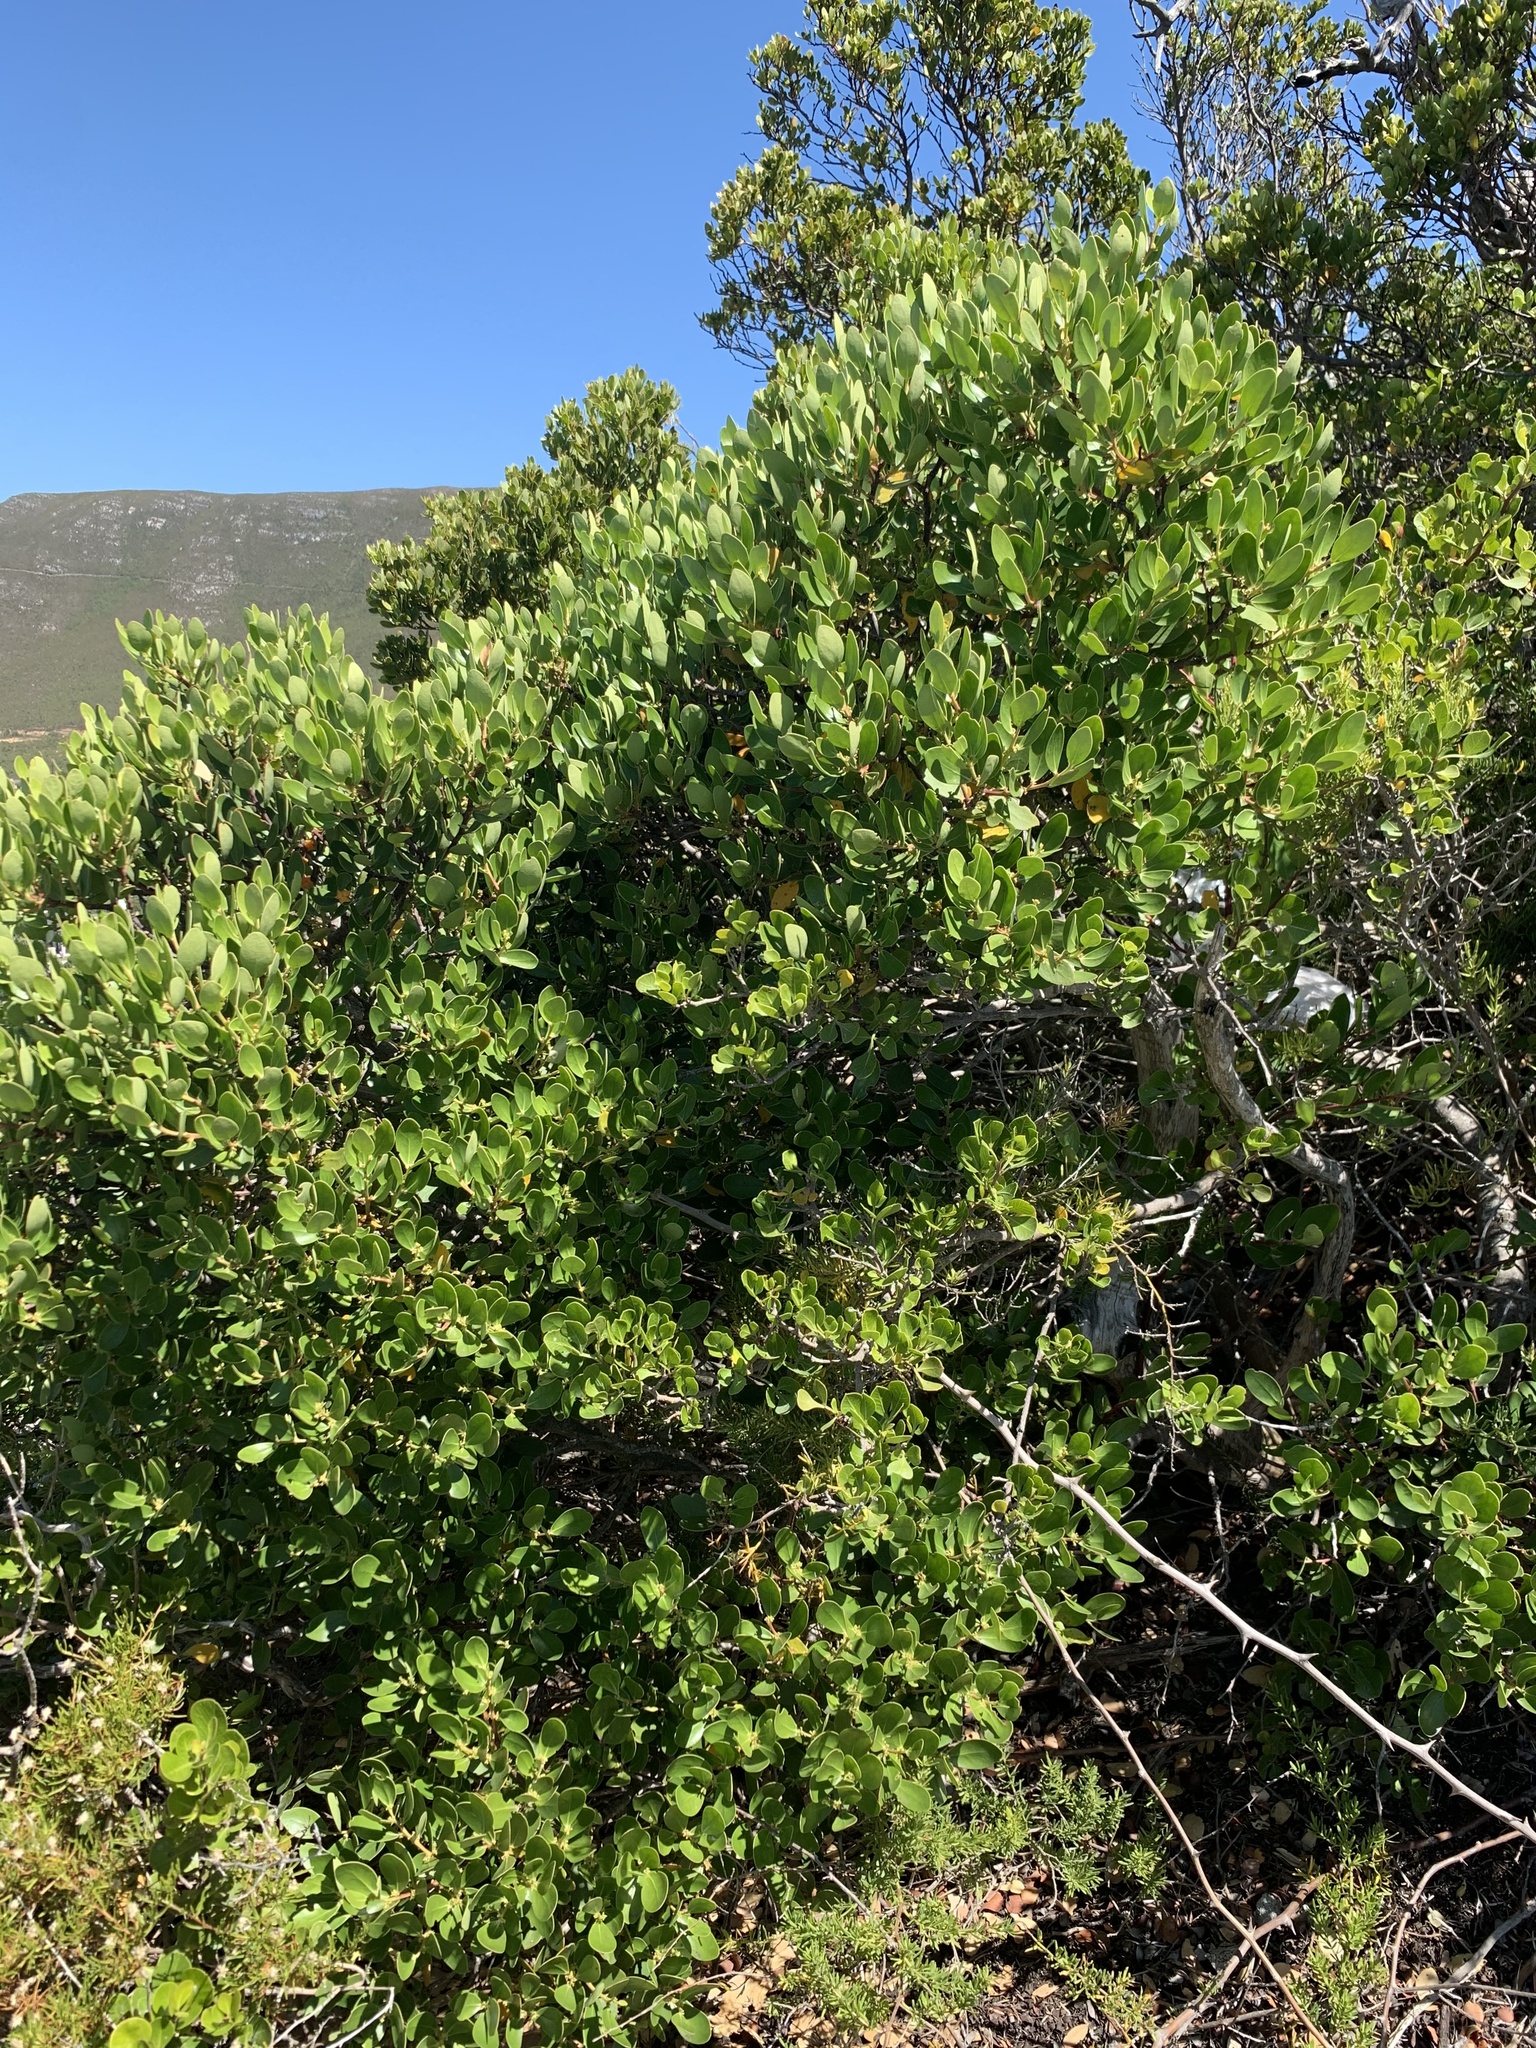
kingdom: Plantae
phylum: Tracheophyta
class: Magnoliopsida
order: Celastrales
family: Celastraceae
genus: Pterocelastrus
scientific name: Pterocelastrus tricuspidatus
